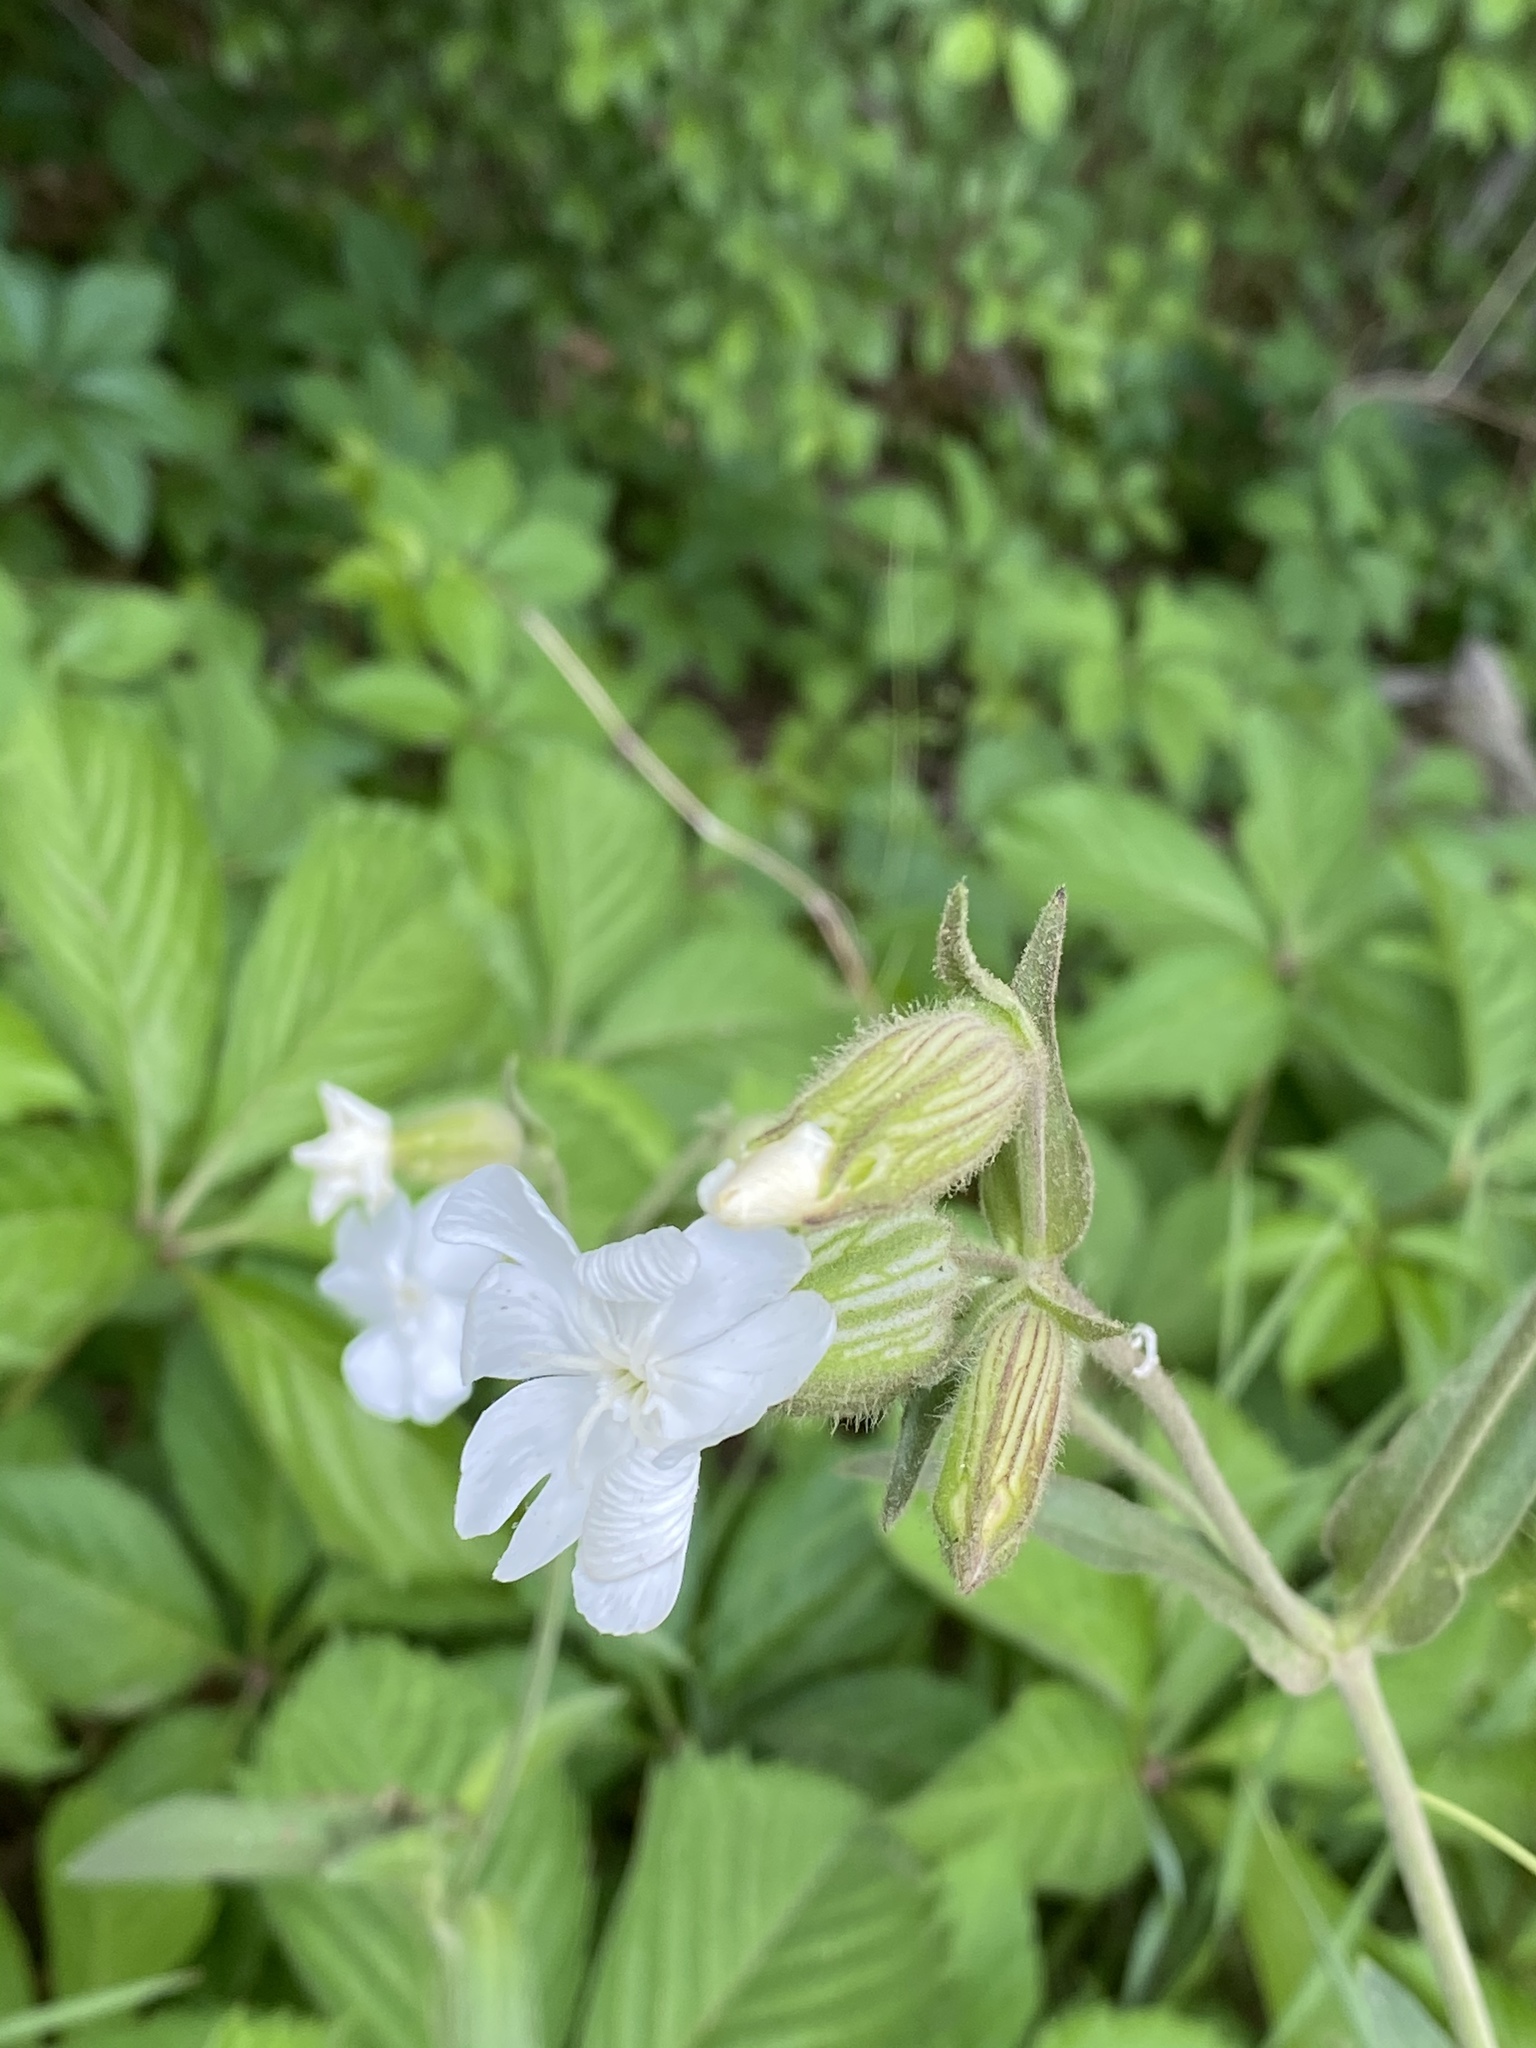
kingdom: Plantae
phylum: Tracheophyta
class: Magnoliopsida
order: Caryophyllales
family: Caryophyllaceae
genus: Silene
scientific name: Silene latifolia
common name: White campion
